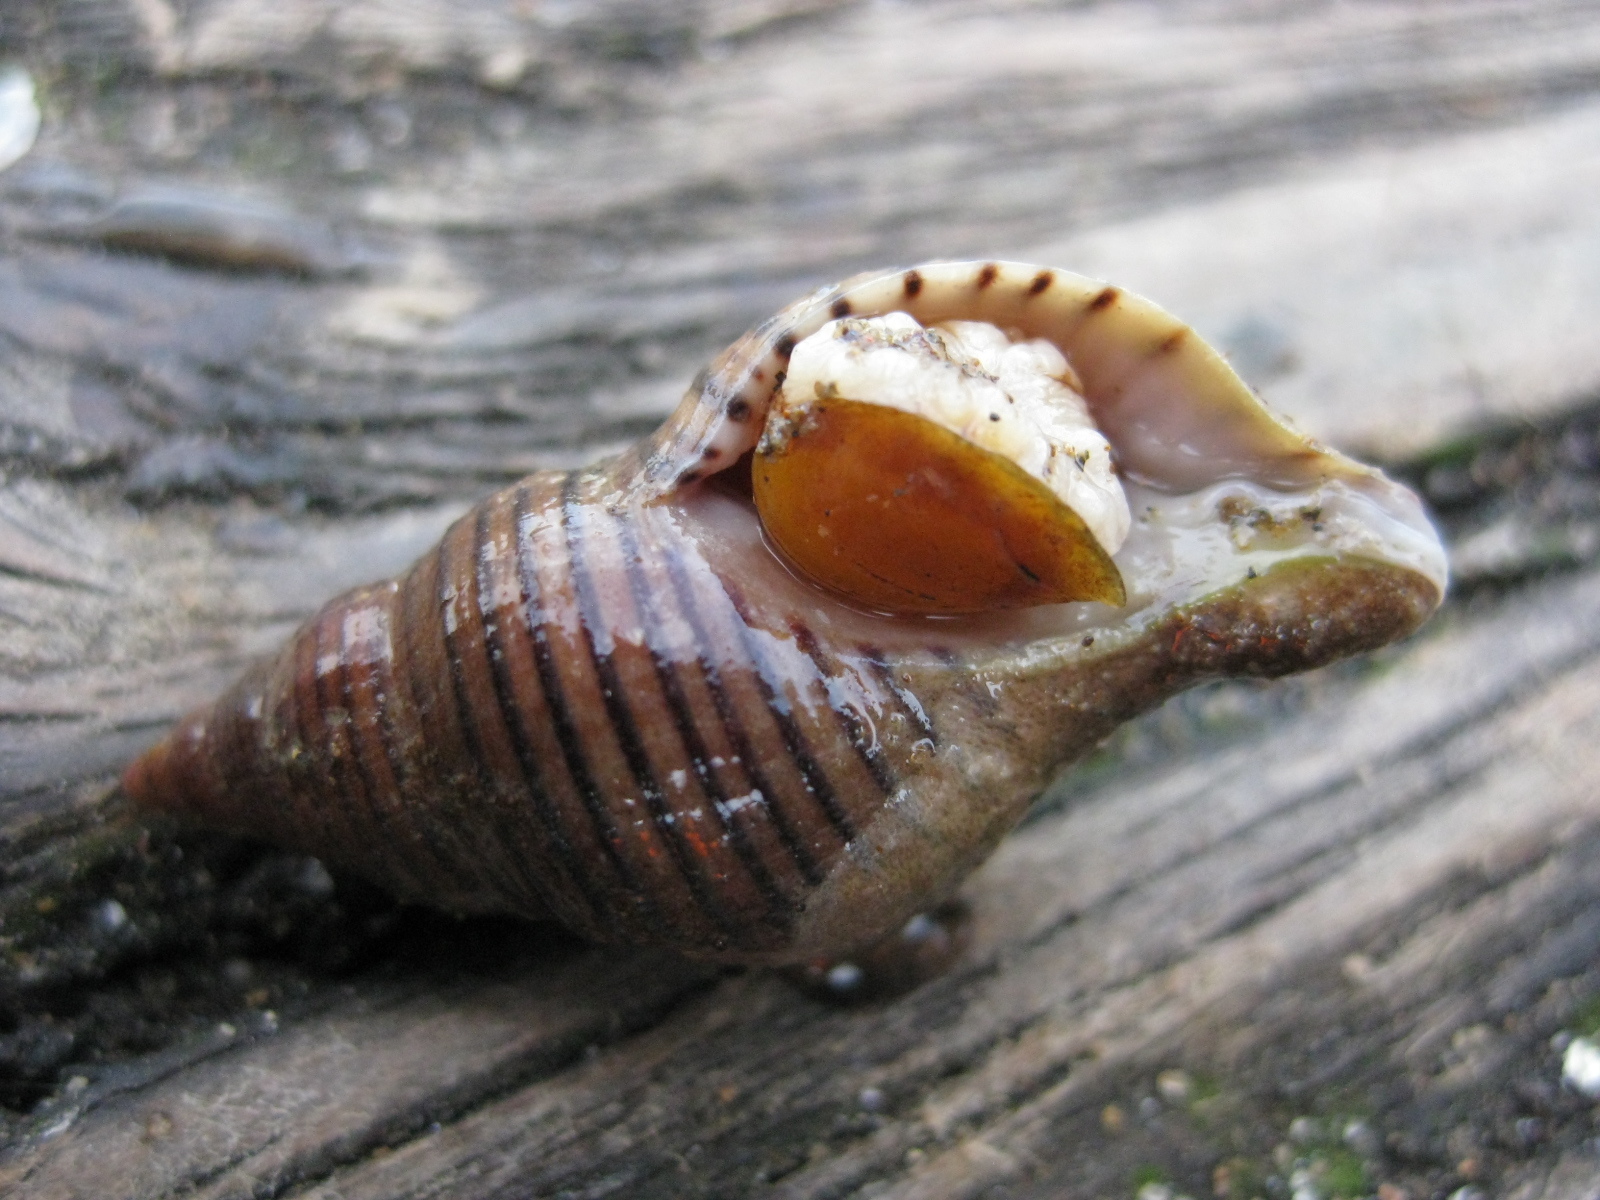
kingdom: Animalia
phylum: Mollusca
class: Gastropoda
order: Neogastropoda
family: Tudiclidae
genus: Buccinulum
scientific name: Buccinulum linea
